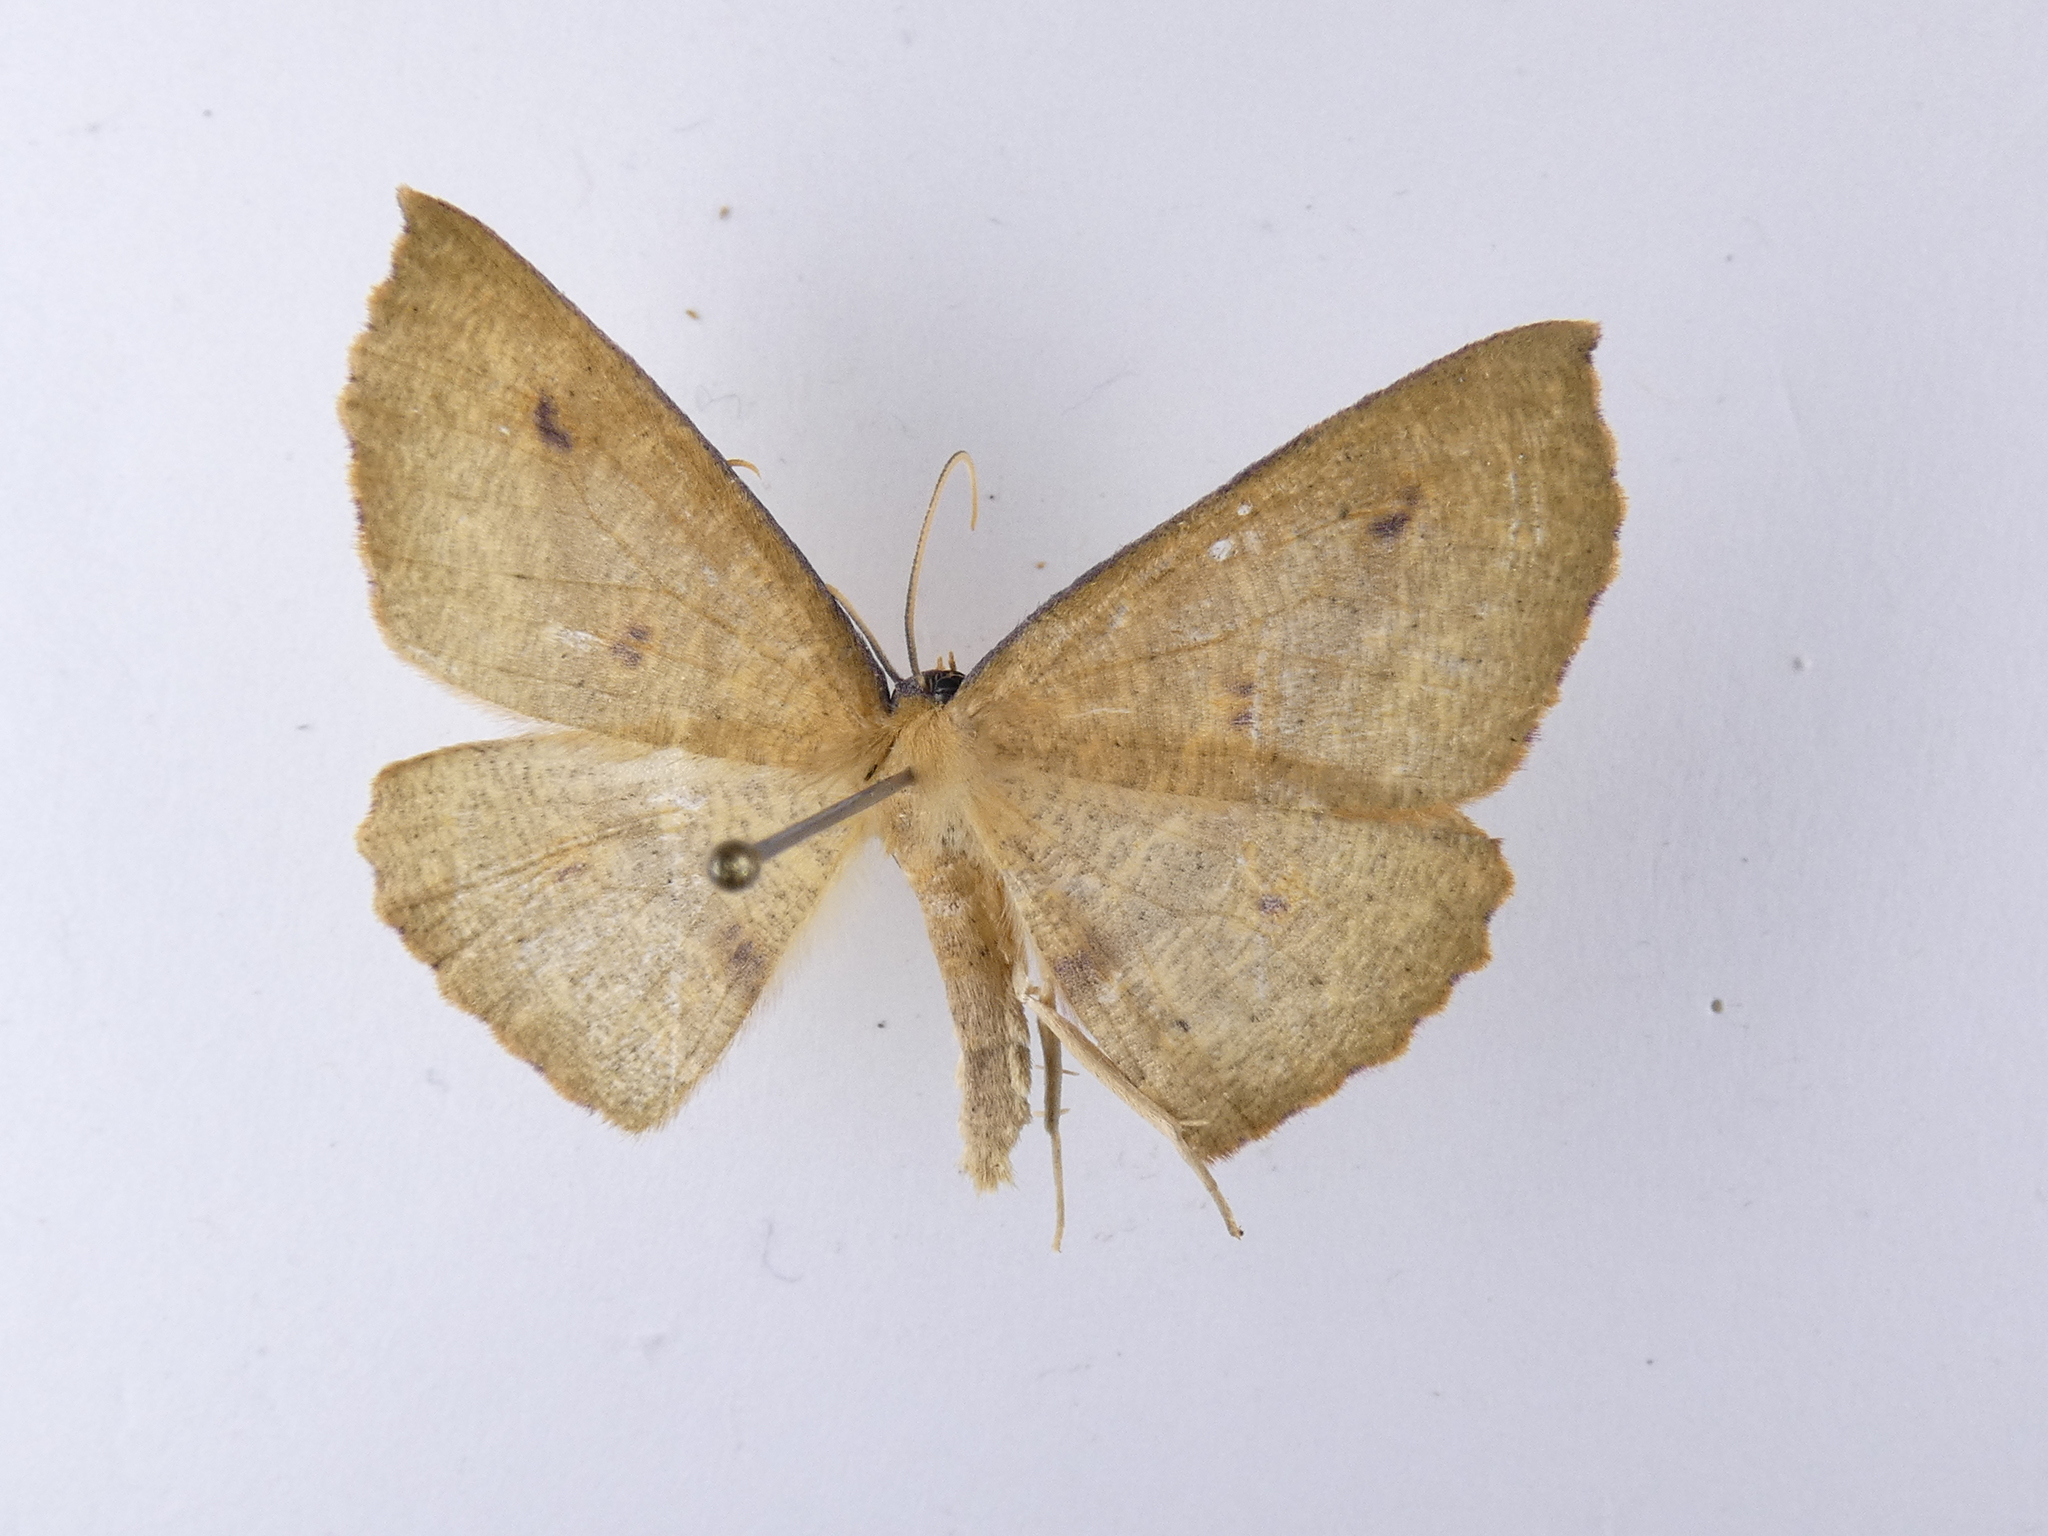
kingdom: Animalia
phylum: Arthropoda
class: Insecta
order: Lepidoptera
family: Geometridae
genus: Xyridacma
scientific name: Xyridacma ustaria
